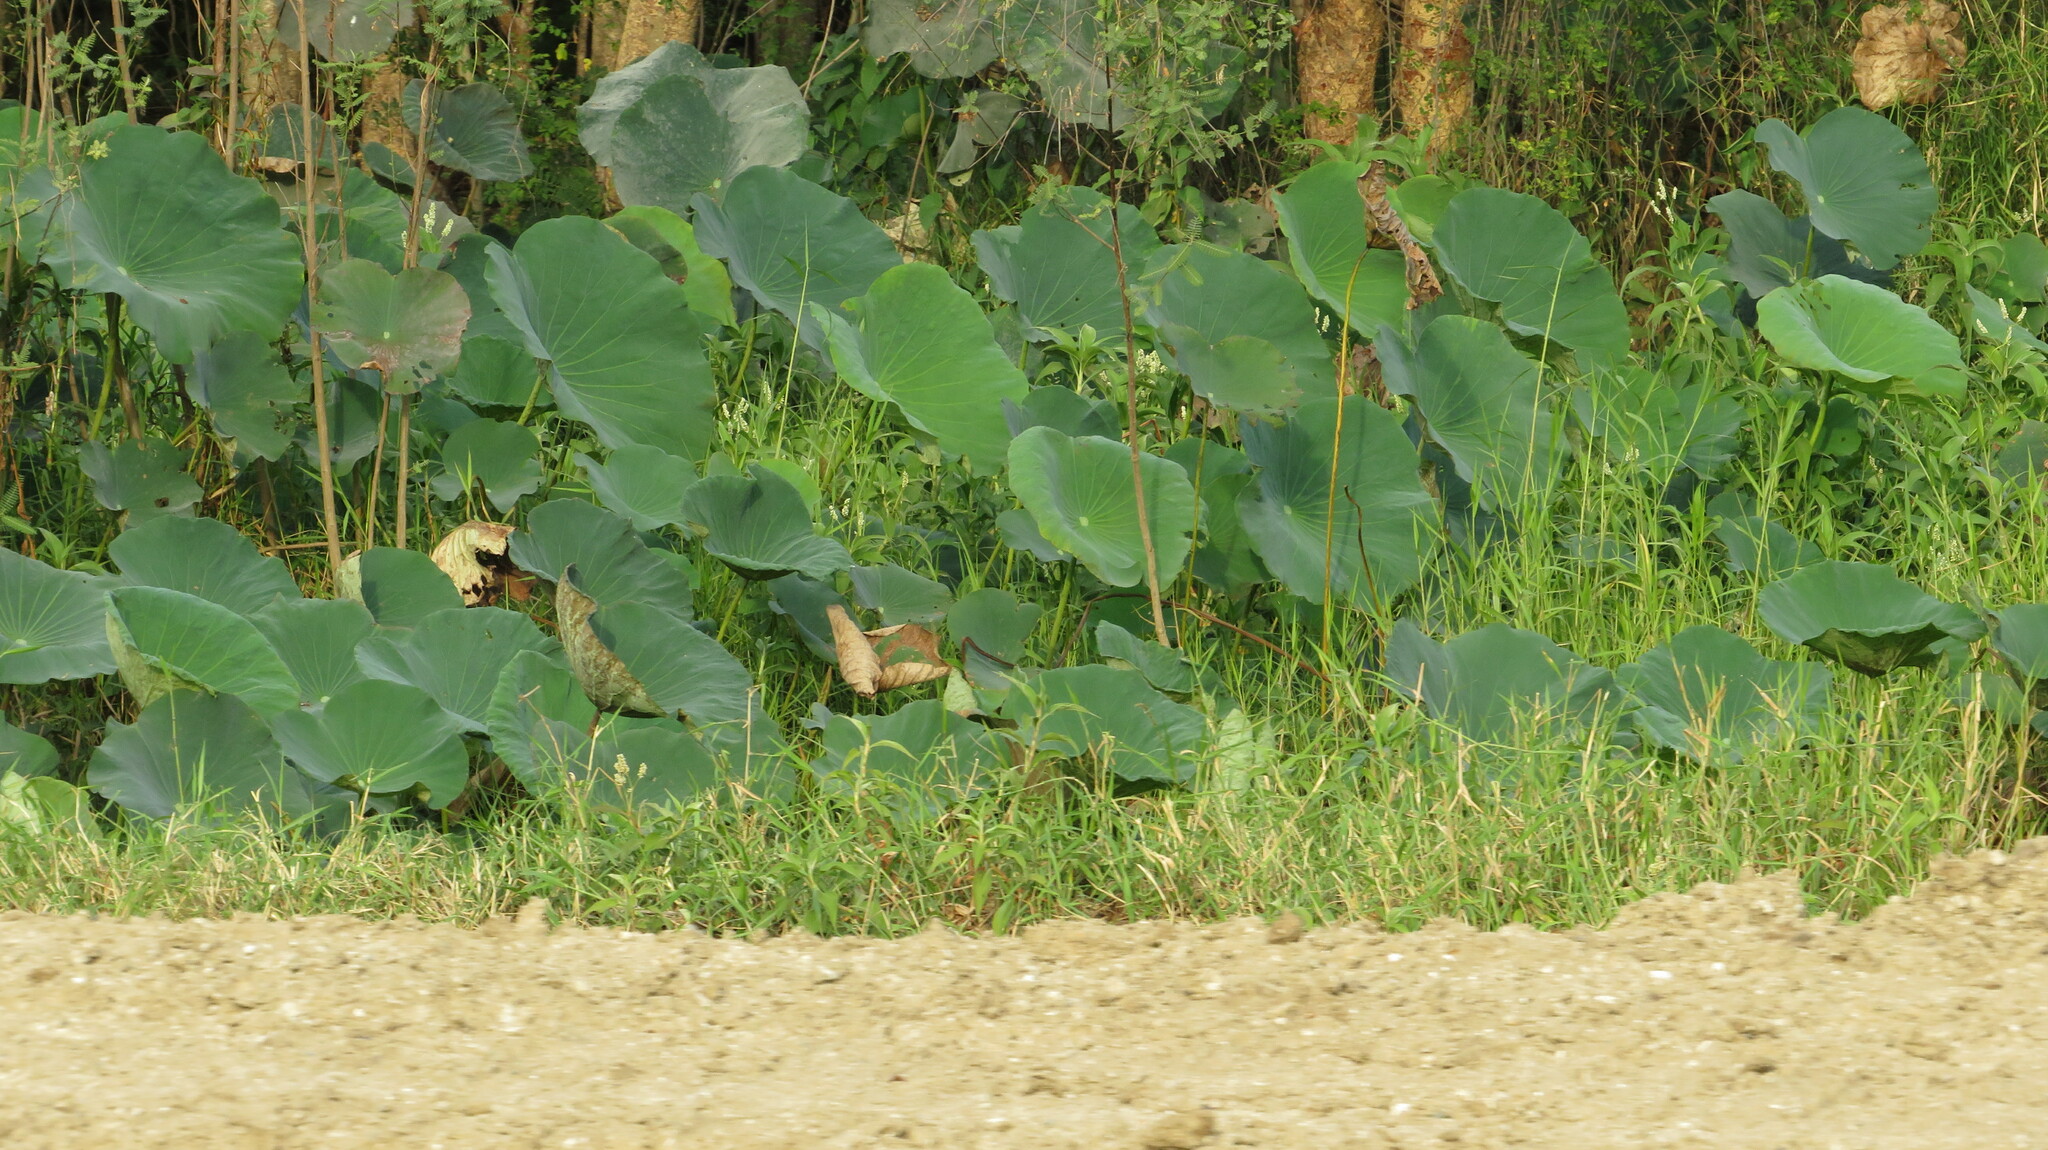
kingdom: Plantae
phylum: Tracheophyta
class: Magnoliopsida
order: Proteales
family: Nelumbonaceae
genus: Nelumbo
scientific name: Nelumbo nucifera
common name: Sacred lotus
